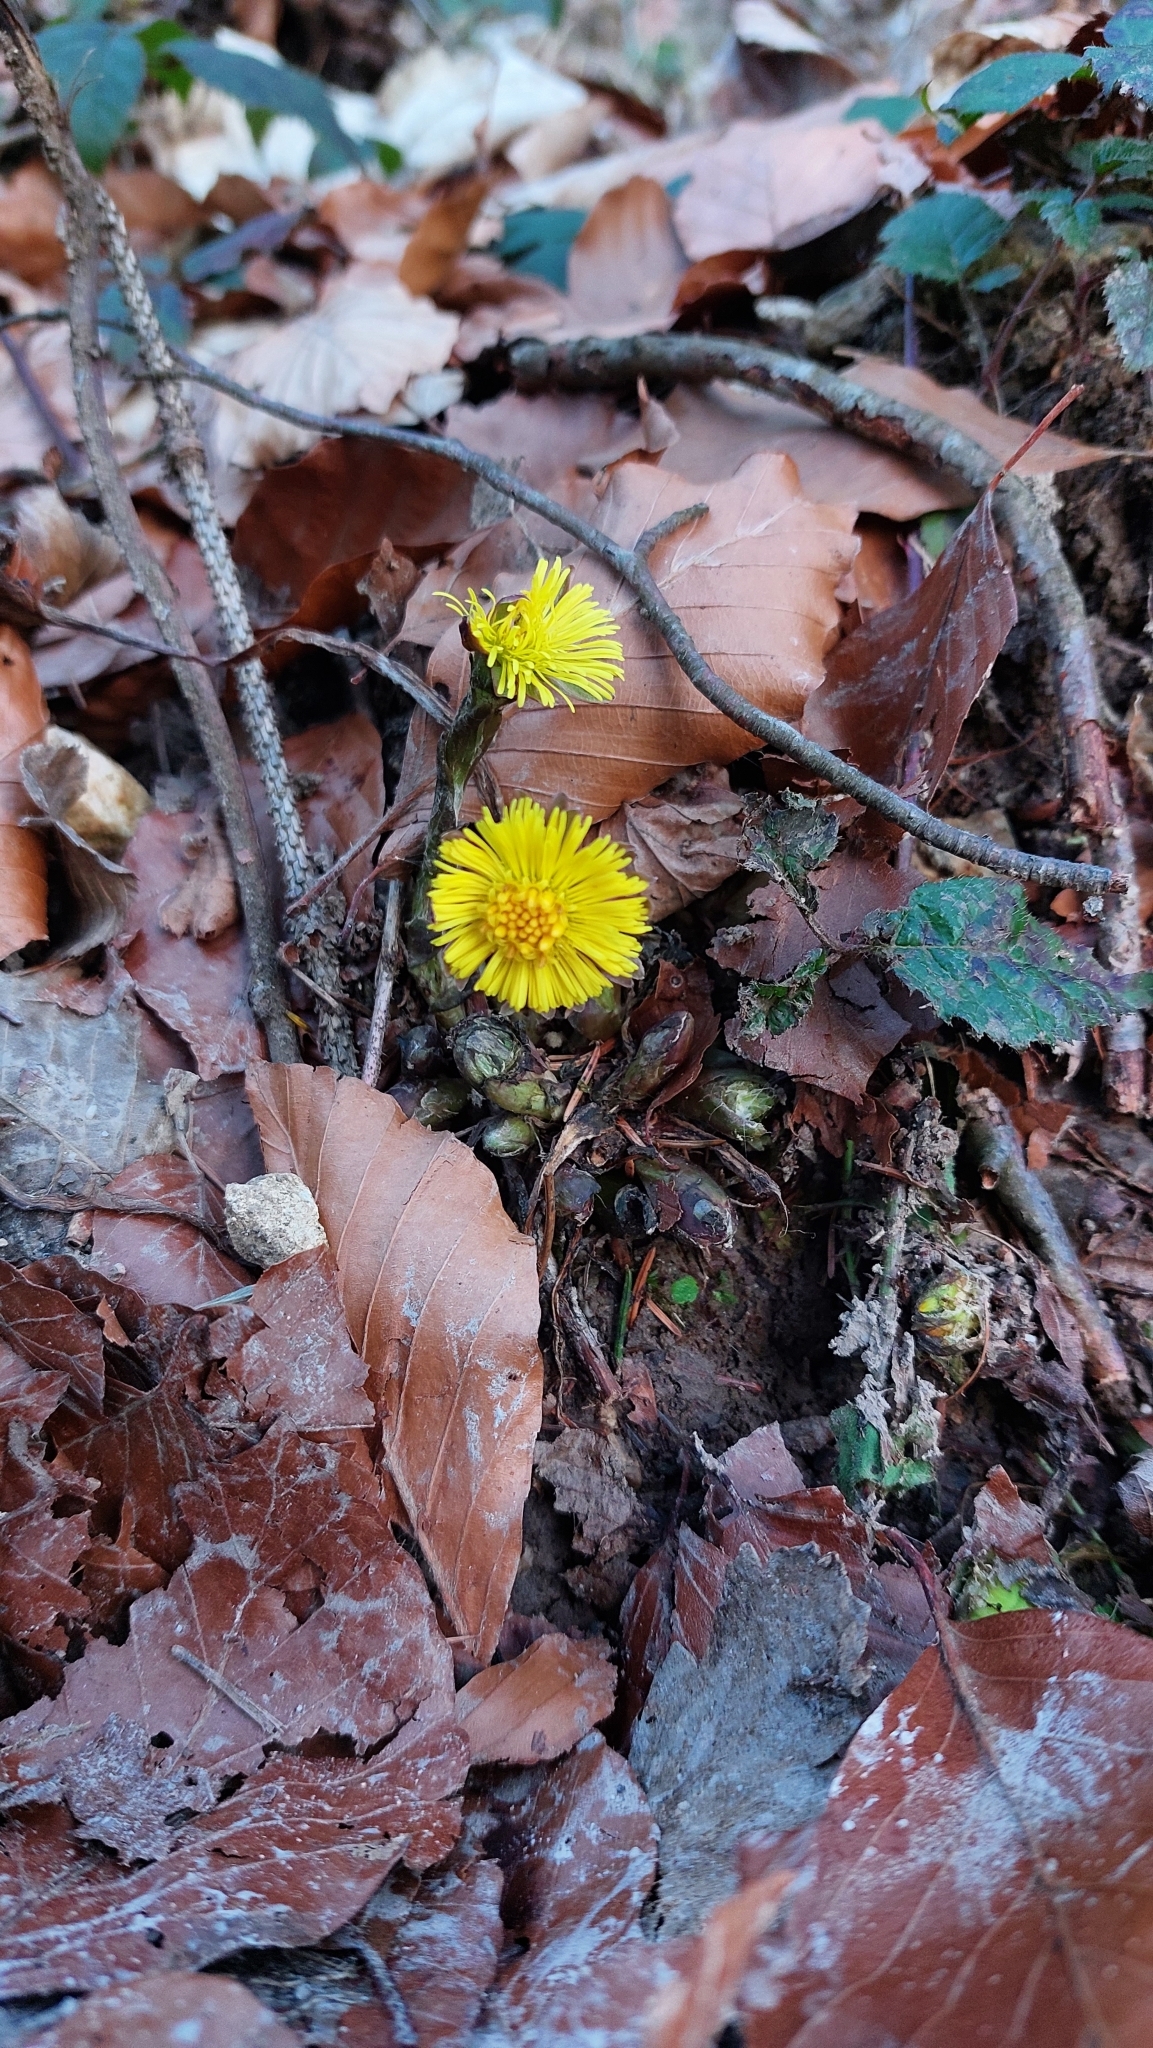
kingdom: Plantae
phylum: Tracheophyta
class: Magnoliopsida
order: Asterales
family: Asteraceae
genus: Tussilago
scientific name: Tussilago farfara
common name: Coltsfoot
